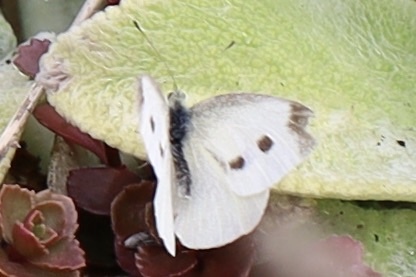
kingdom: Animalia
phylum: Arthropoda
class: Insecta
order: Lepidoptera
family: Pieridae
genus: Pieris
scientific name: Pieris rapae
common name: Small white
